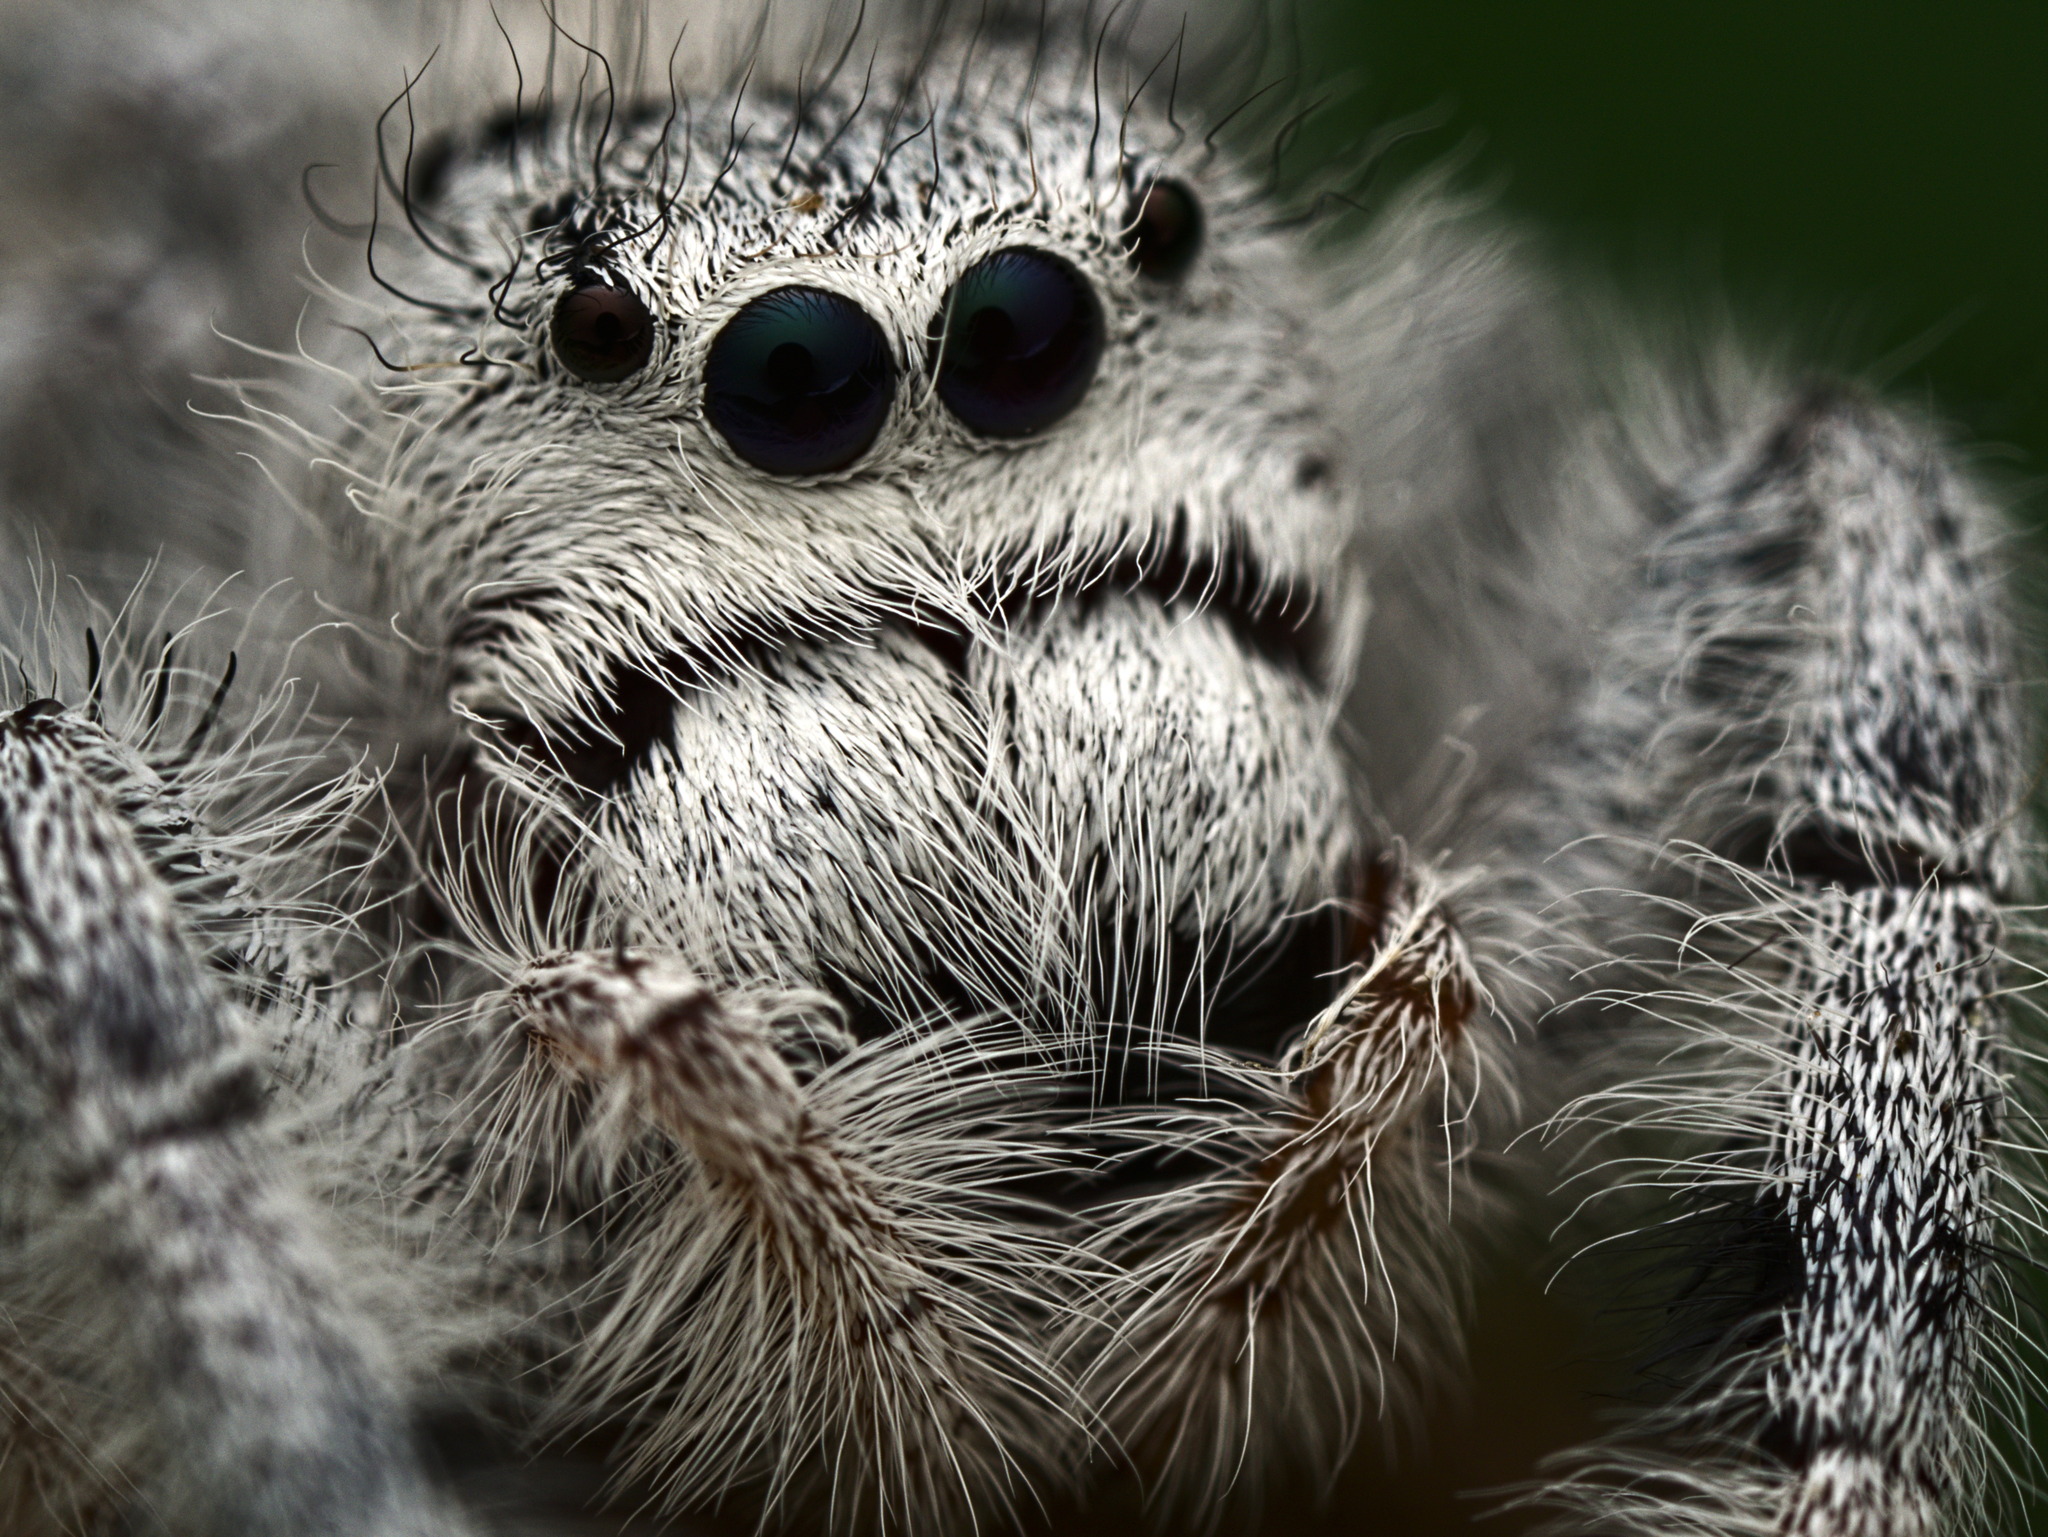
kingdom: Animalia
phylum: Arthropoda
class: Arachnida
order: Araneae
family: Salticidae
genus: Paraphidippus
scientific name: Paraphidippus fartilis
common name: Jumping spiders
